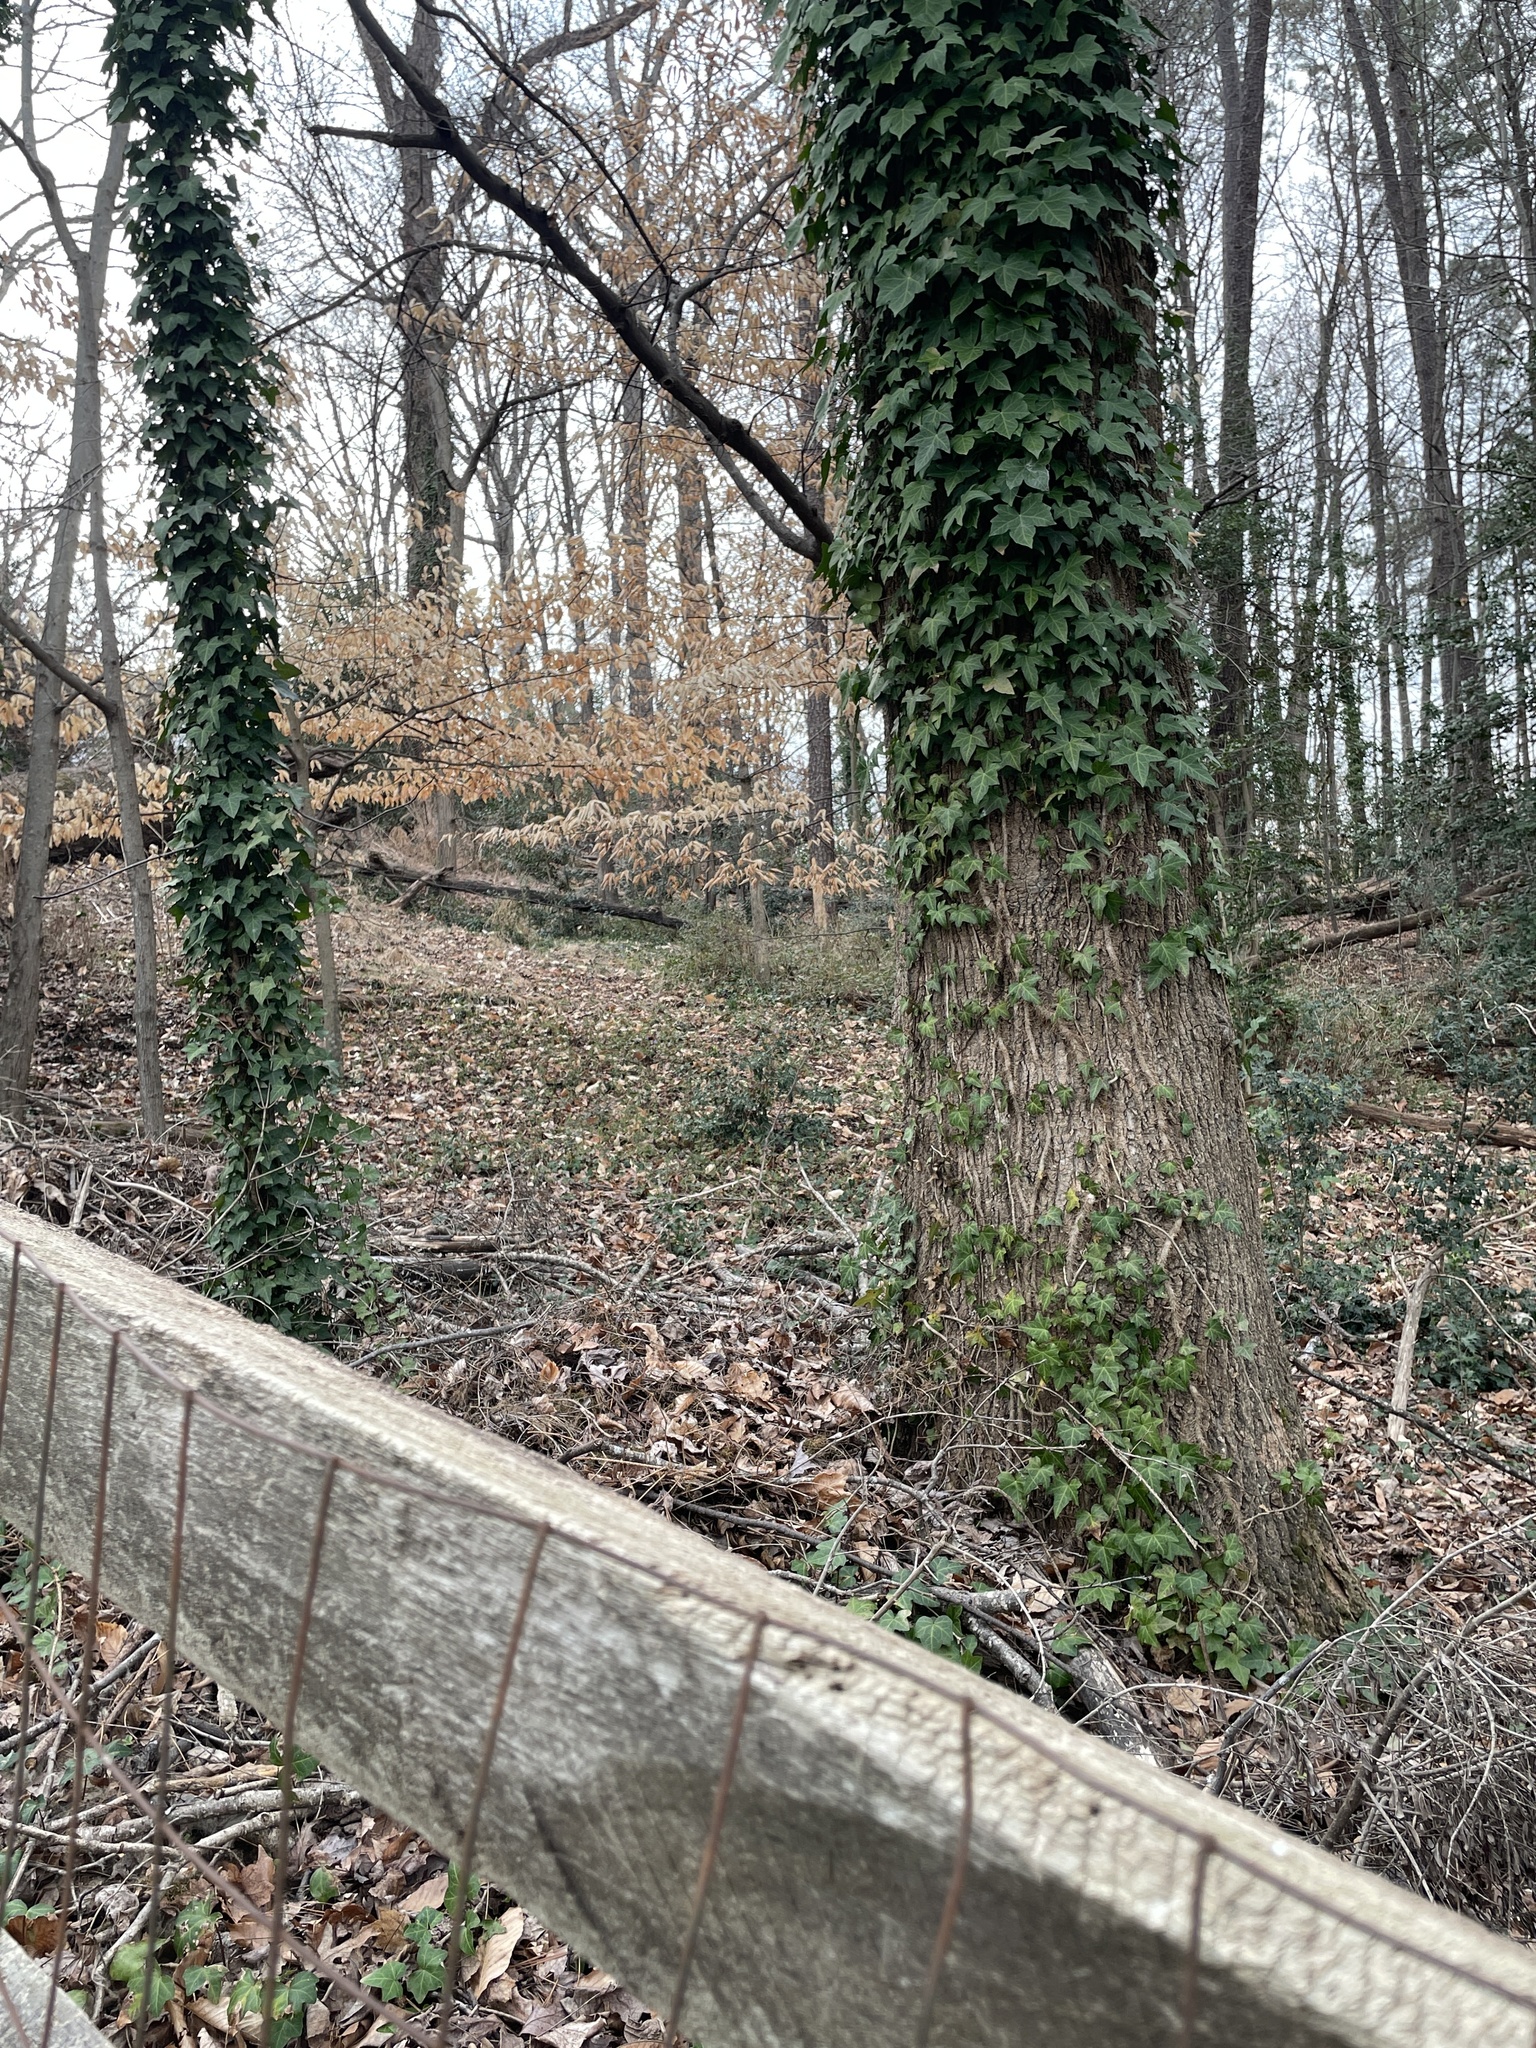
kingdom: Plantae
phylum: Tracheophyta
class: Magnoliopsida
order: Apiales
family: Araliaceae
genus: Hedera
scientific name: Hedera helix
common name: Ivy
